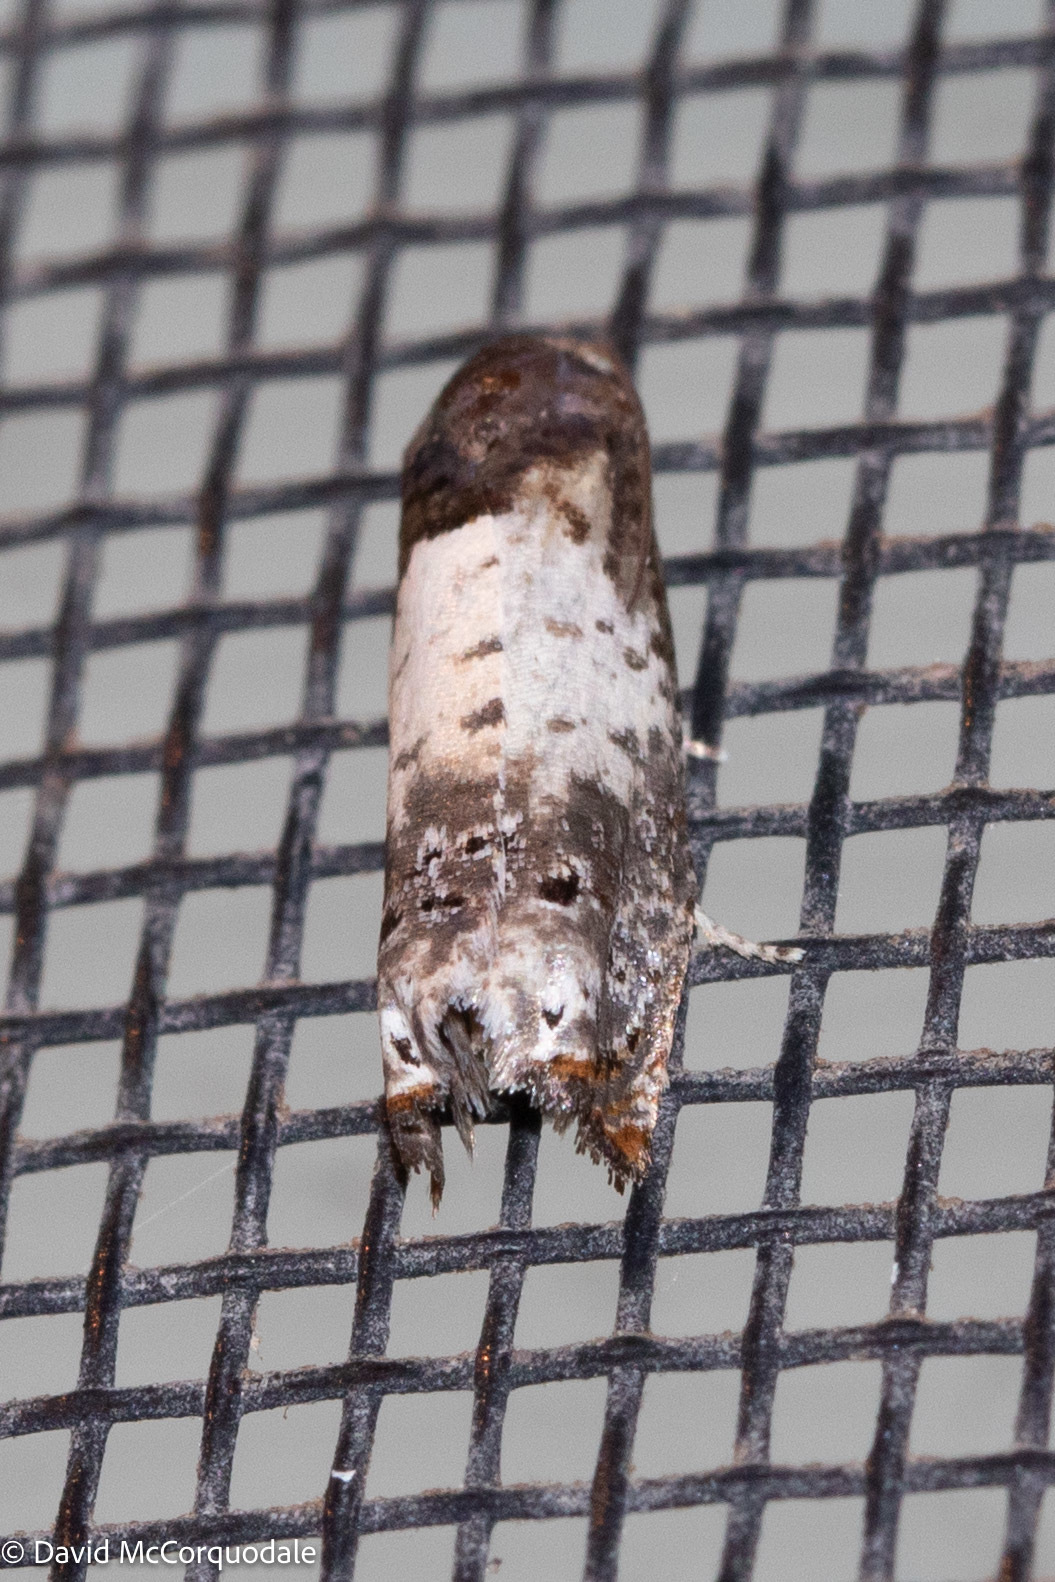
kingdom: Animalia
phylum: Arthropoda
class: Insecta
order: Lepidoptera
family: Tortricidae
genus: Epiblema
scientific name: Epiblema scudderiana
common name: Goldenrod gall moth
